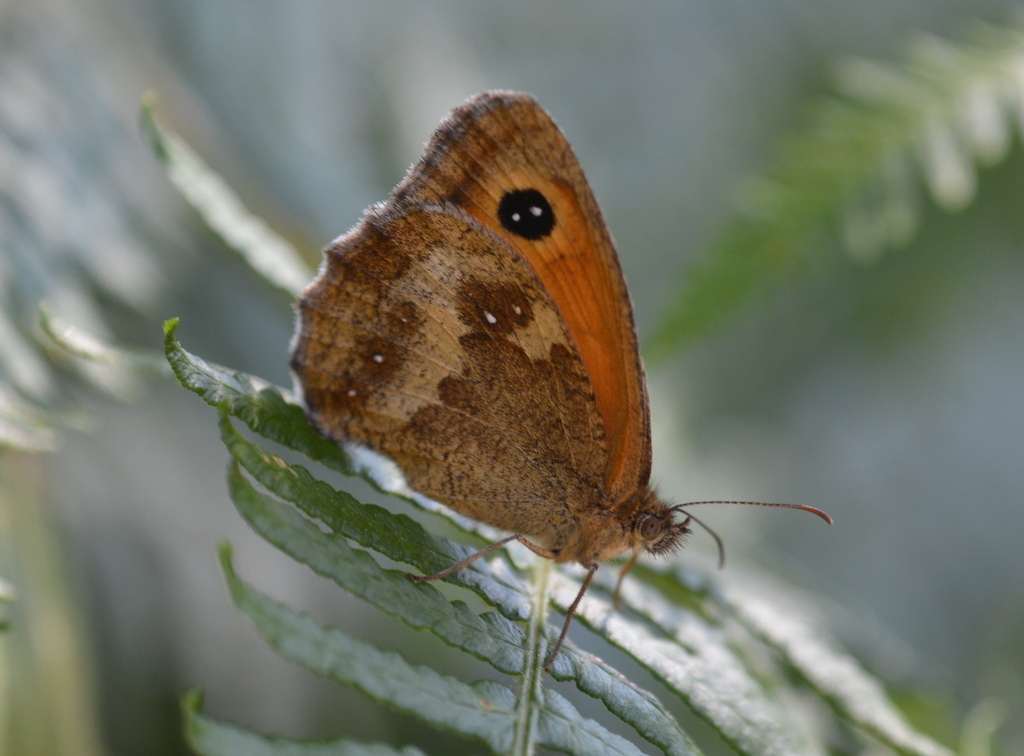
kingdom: Animalia
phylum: Arthropoda
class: Insecta
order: Lepidoptera
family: Nymphalidae
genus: Pyronia
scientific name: Pyronia tithonus
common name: Gatekeeper
